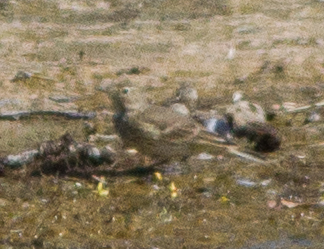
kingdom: Animalia
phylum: Chordata
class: Aves
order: Passeriformes
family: Motacillidae
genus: Anthus
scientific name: Anthus rubescens
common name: Buff-bellied pipit
